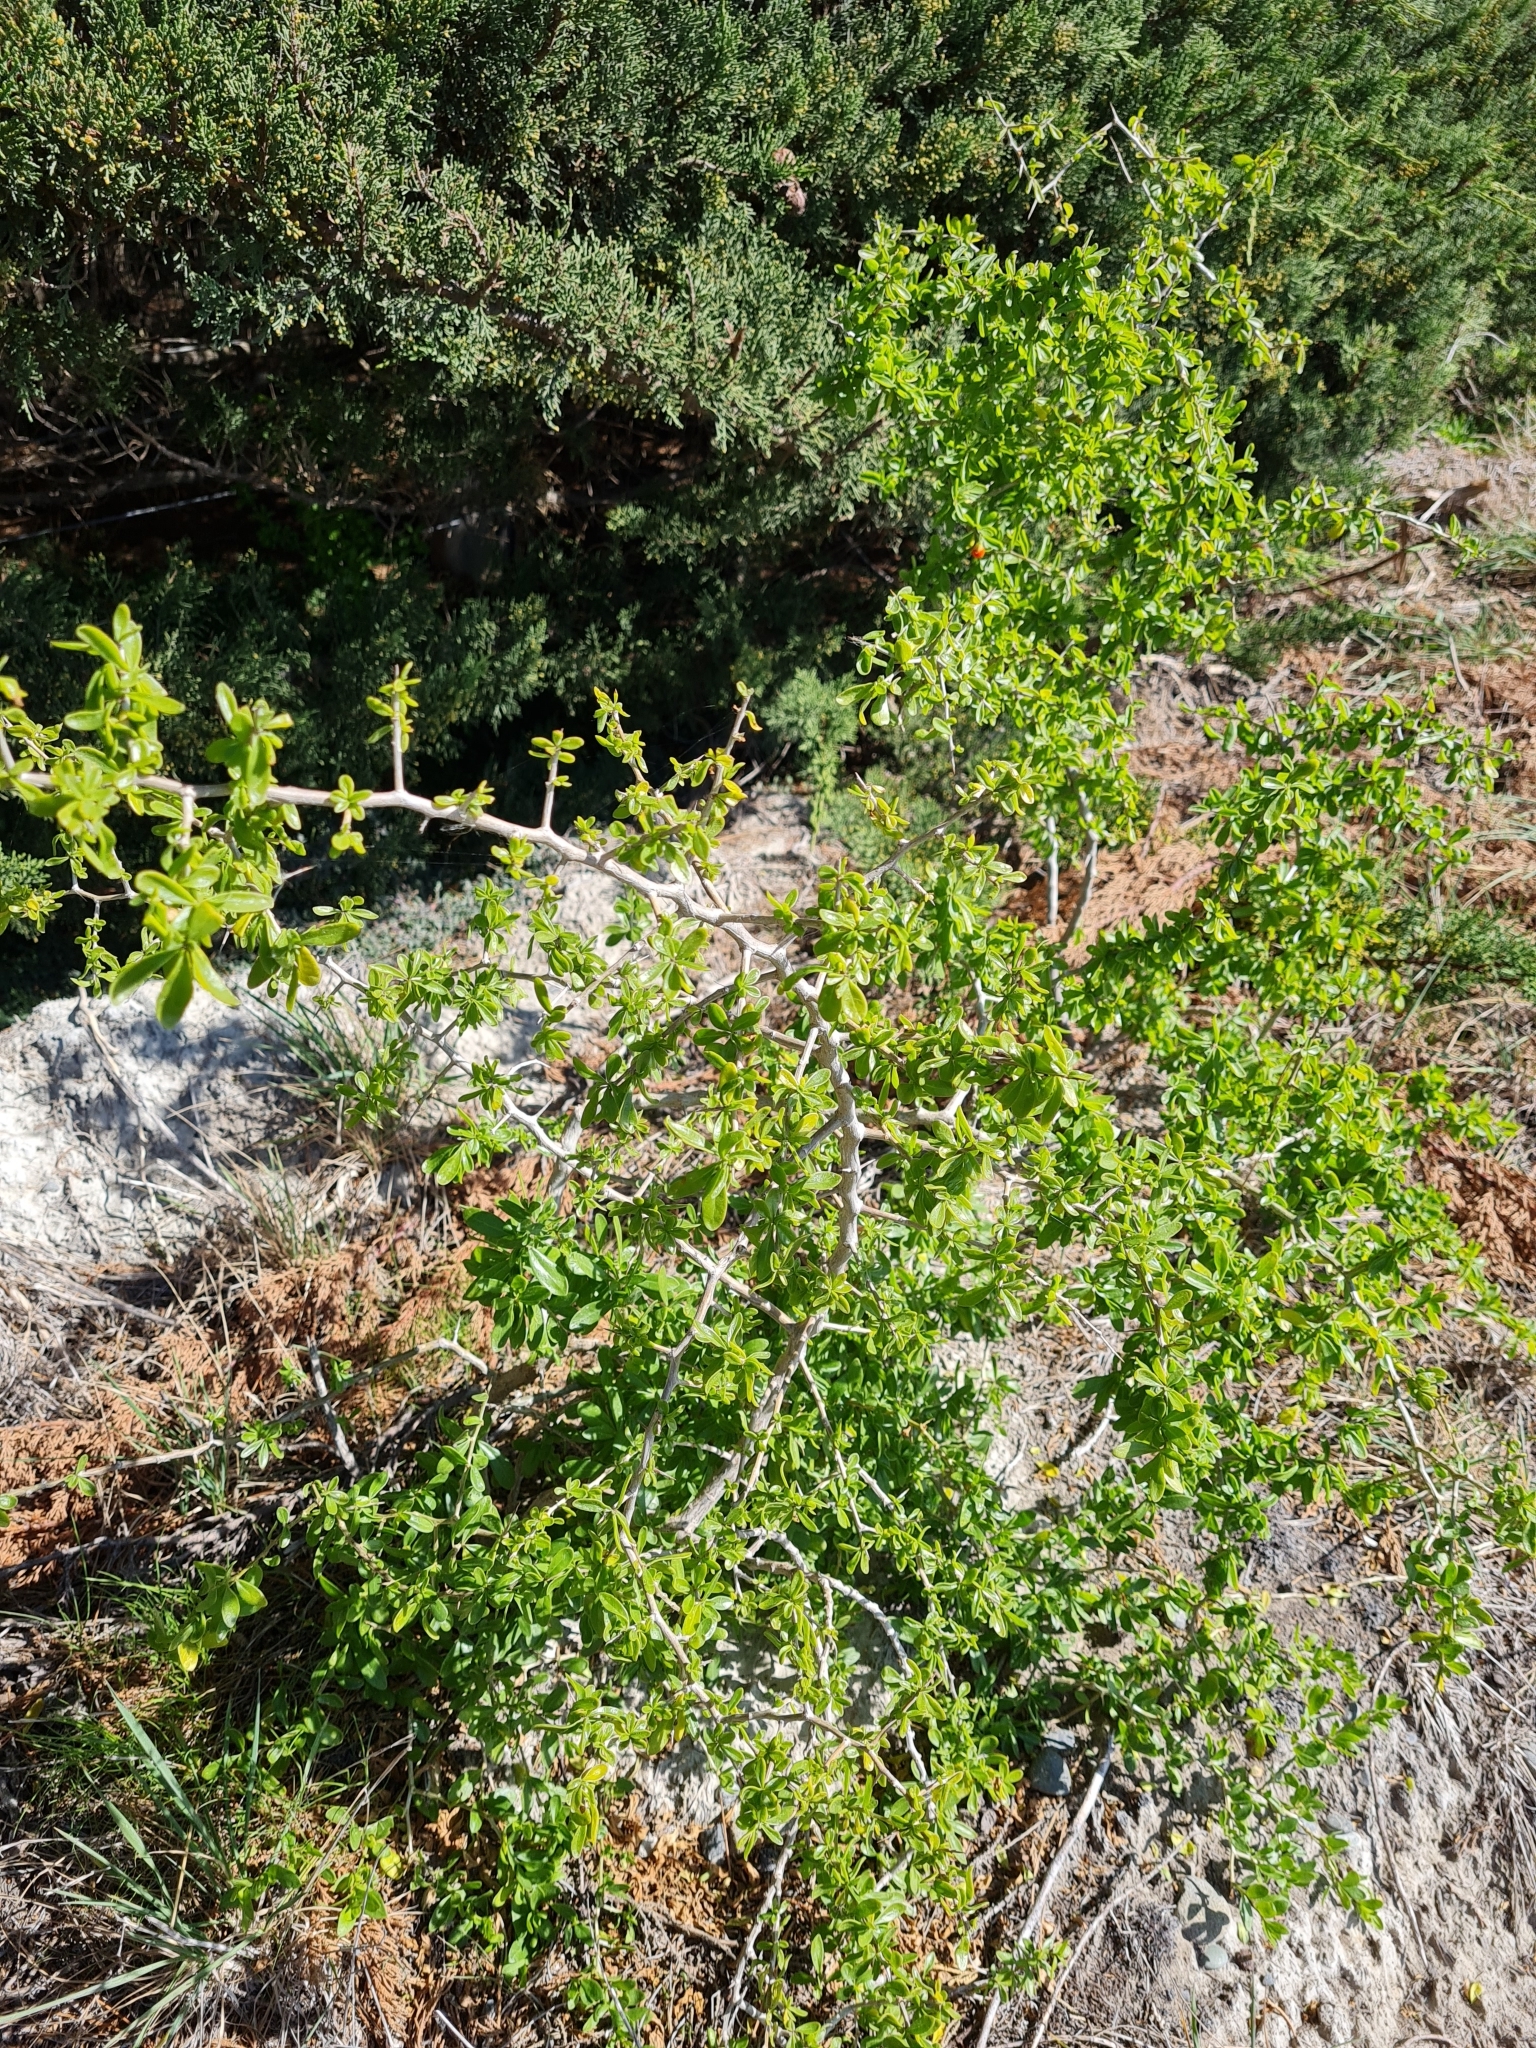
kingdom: Plantae
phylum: Tracheophyta
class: Magnoliopsida
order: Solanales
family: Solanaceae
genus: Lycium
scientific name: Lycium ferocissimum
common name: African boxthorn
